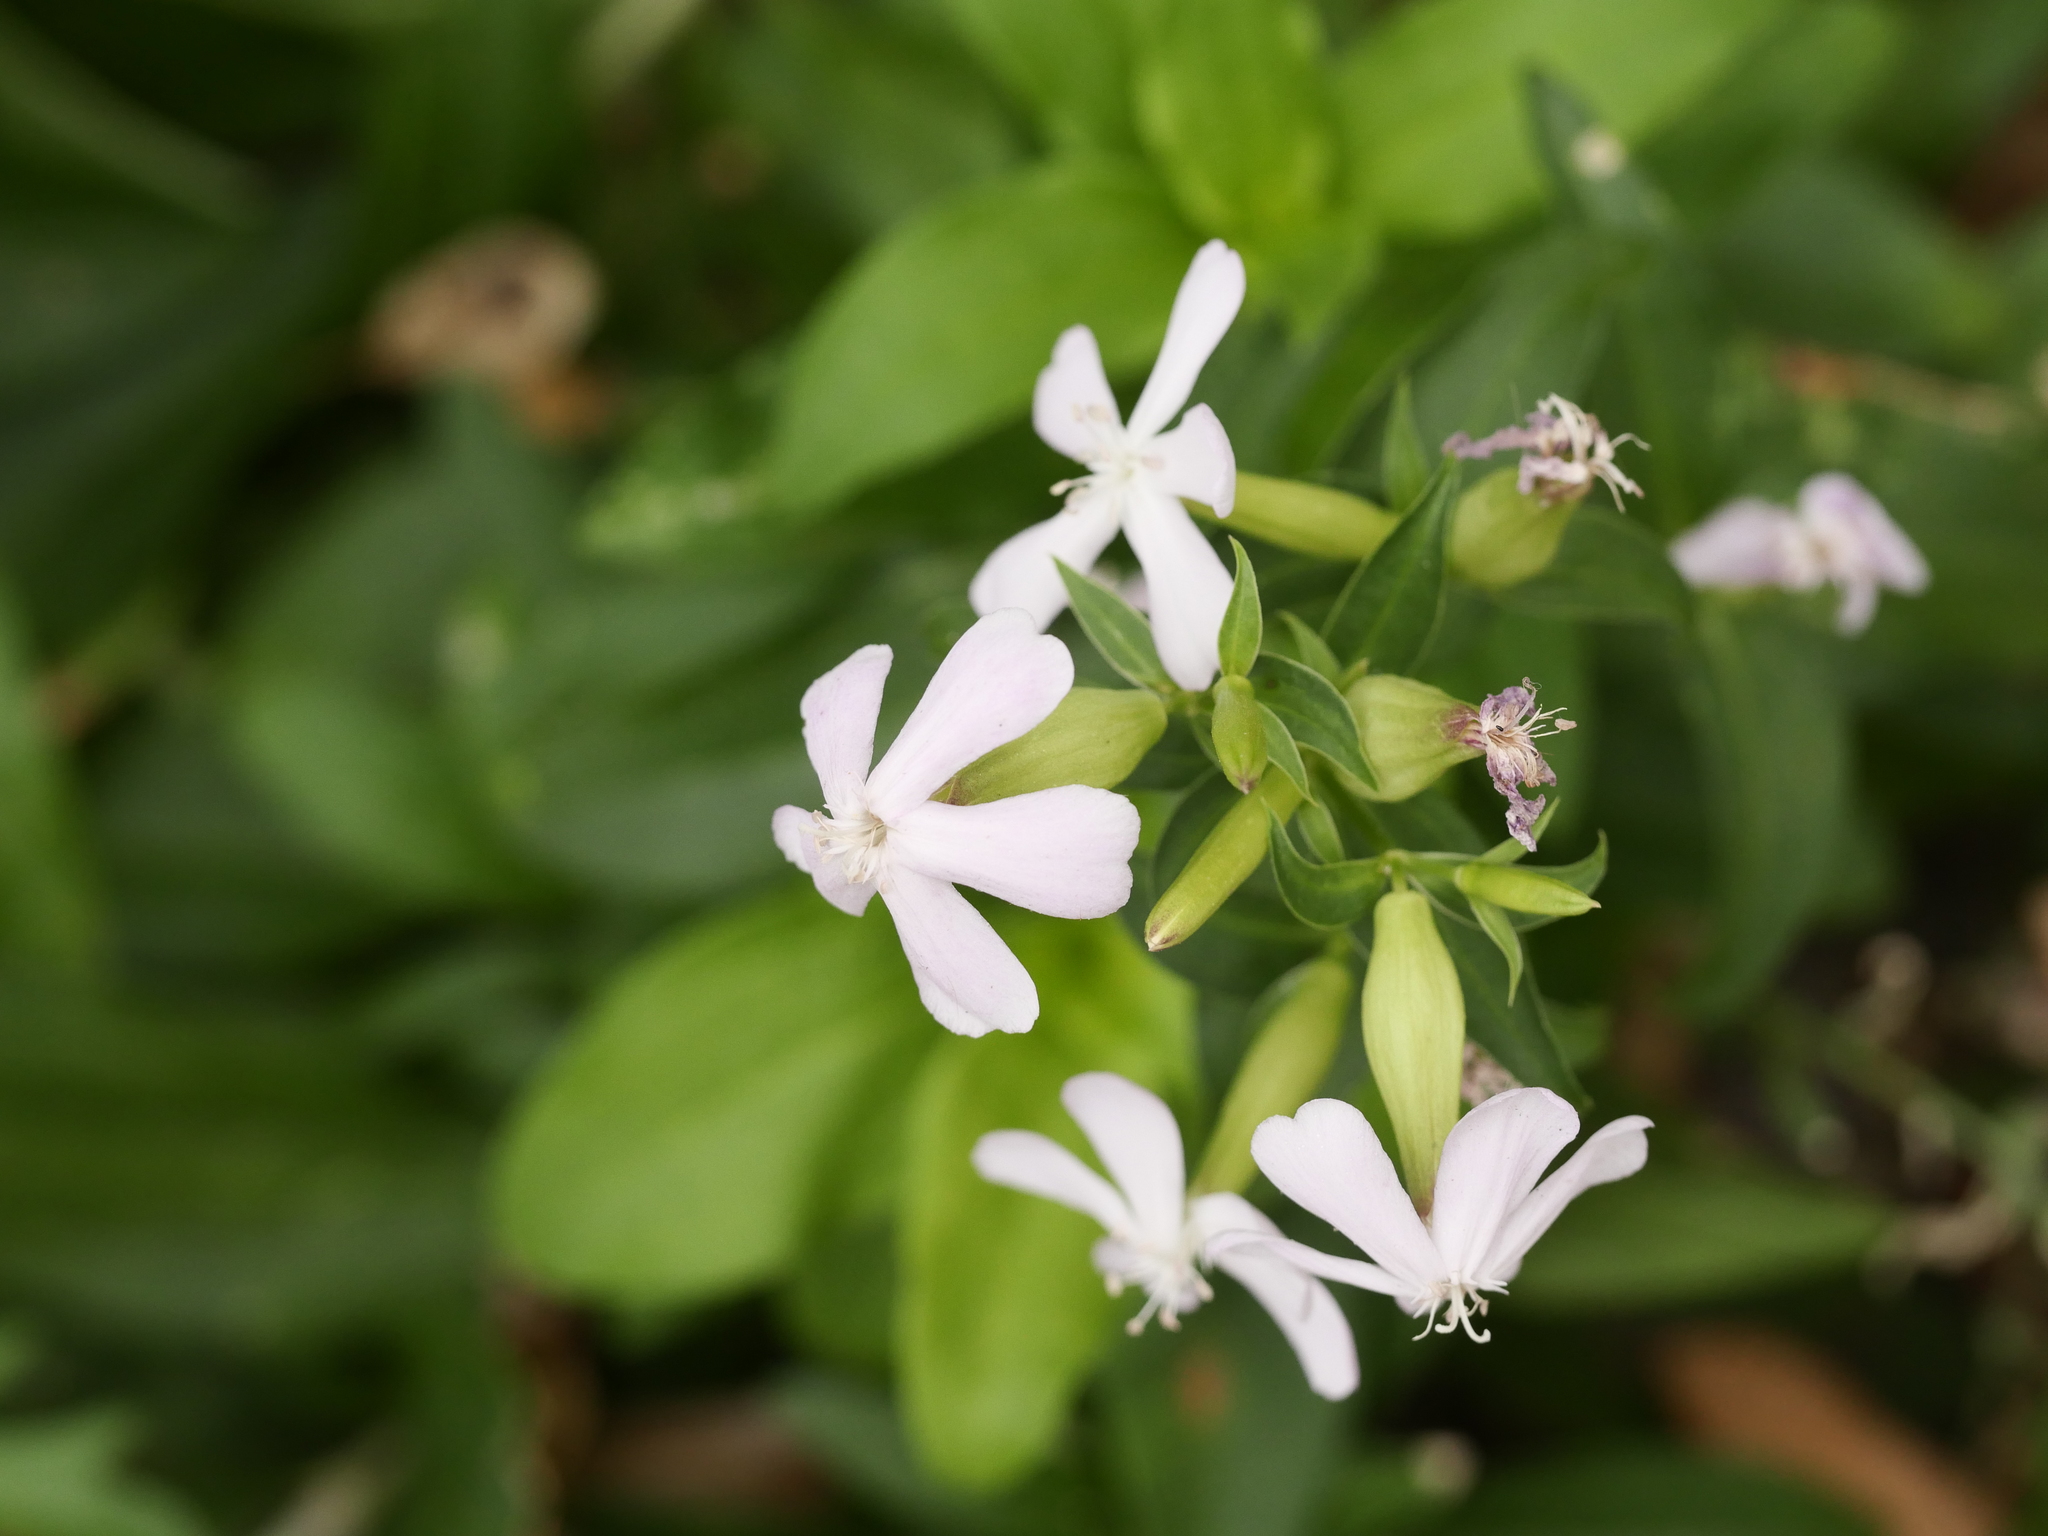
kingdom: Plantae
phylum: Tracheophyta
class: Magnoliopsida
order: Caryophyllales
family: Caryophyllaceae
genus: Saponaria
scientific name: Saponaria officinalis
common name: Soapwort
